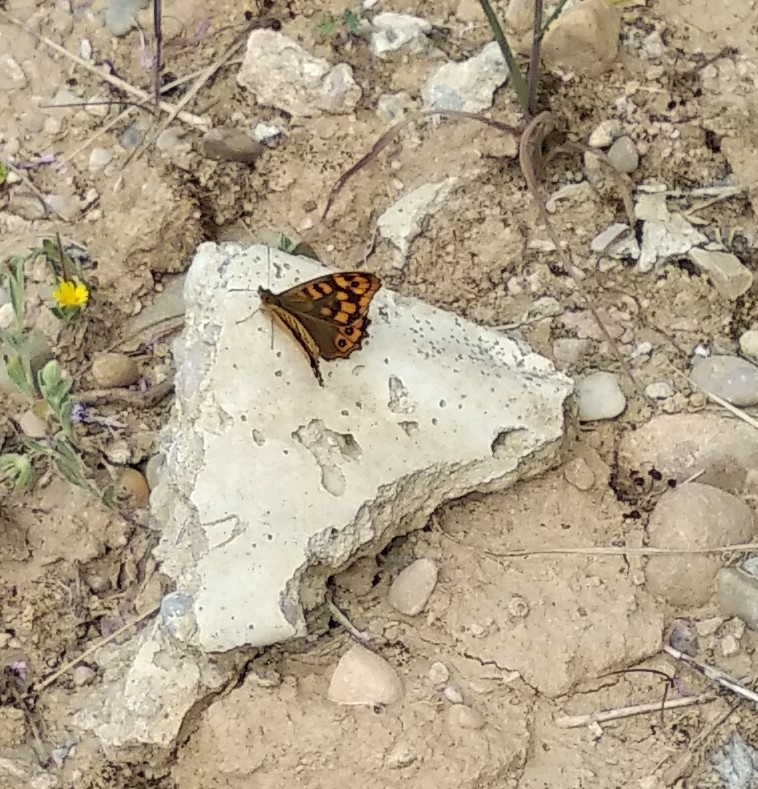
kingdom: Animalia
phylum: Arthropoda
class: Insecta
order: Lepidoptera
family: Nymphalidae
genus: Pararge
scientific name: Pararge aegeria
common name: Speckled wood
